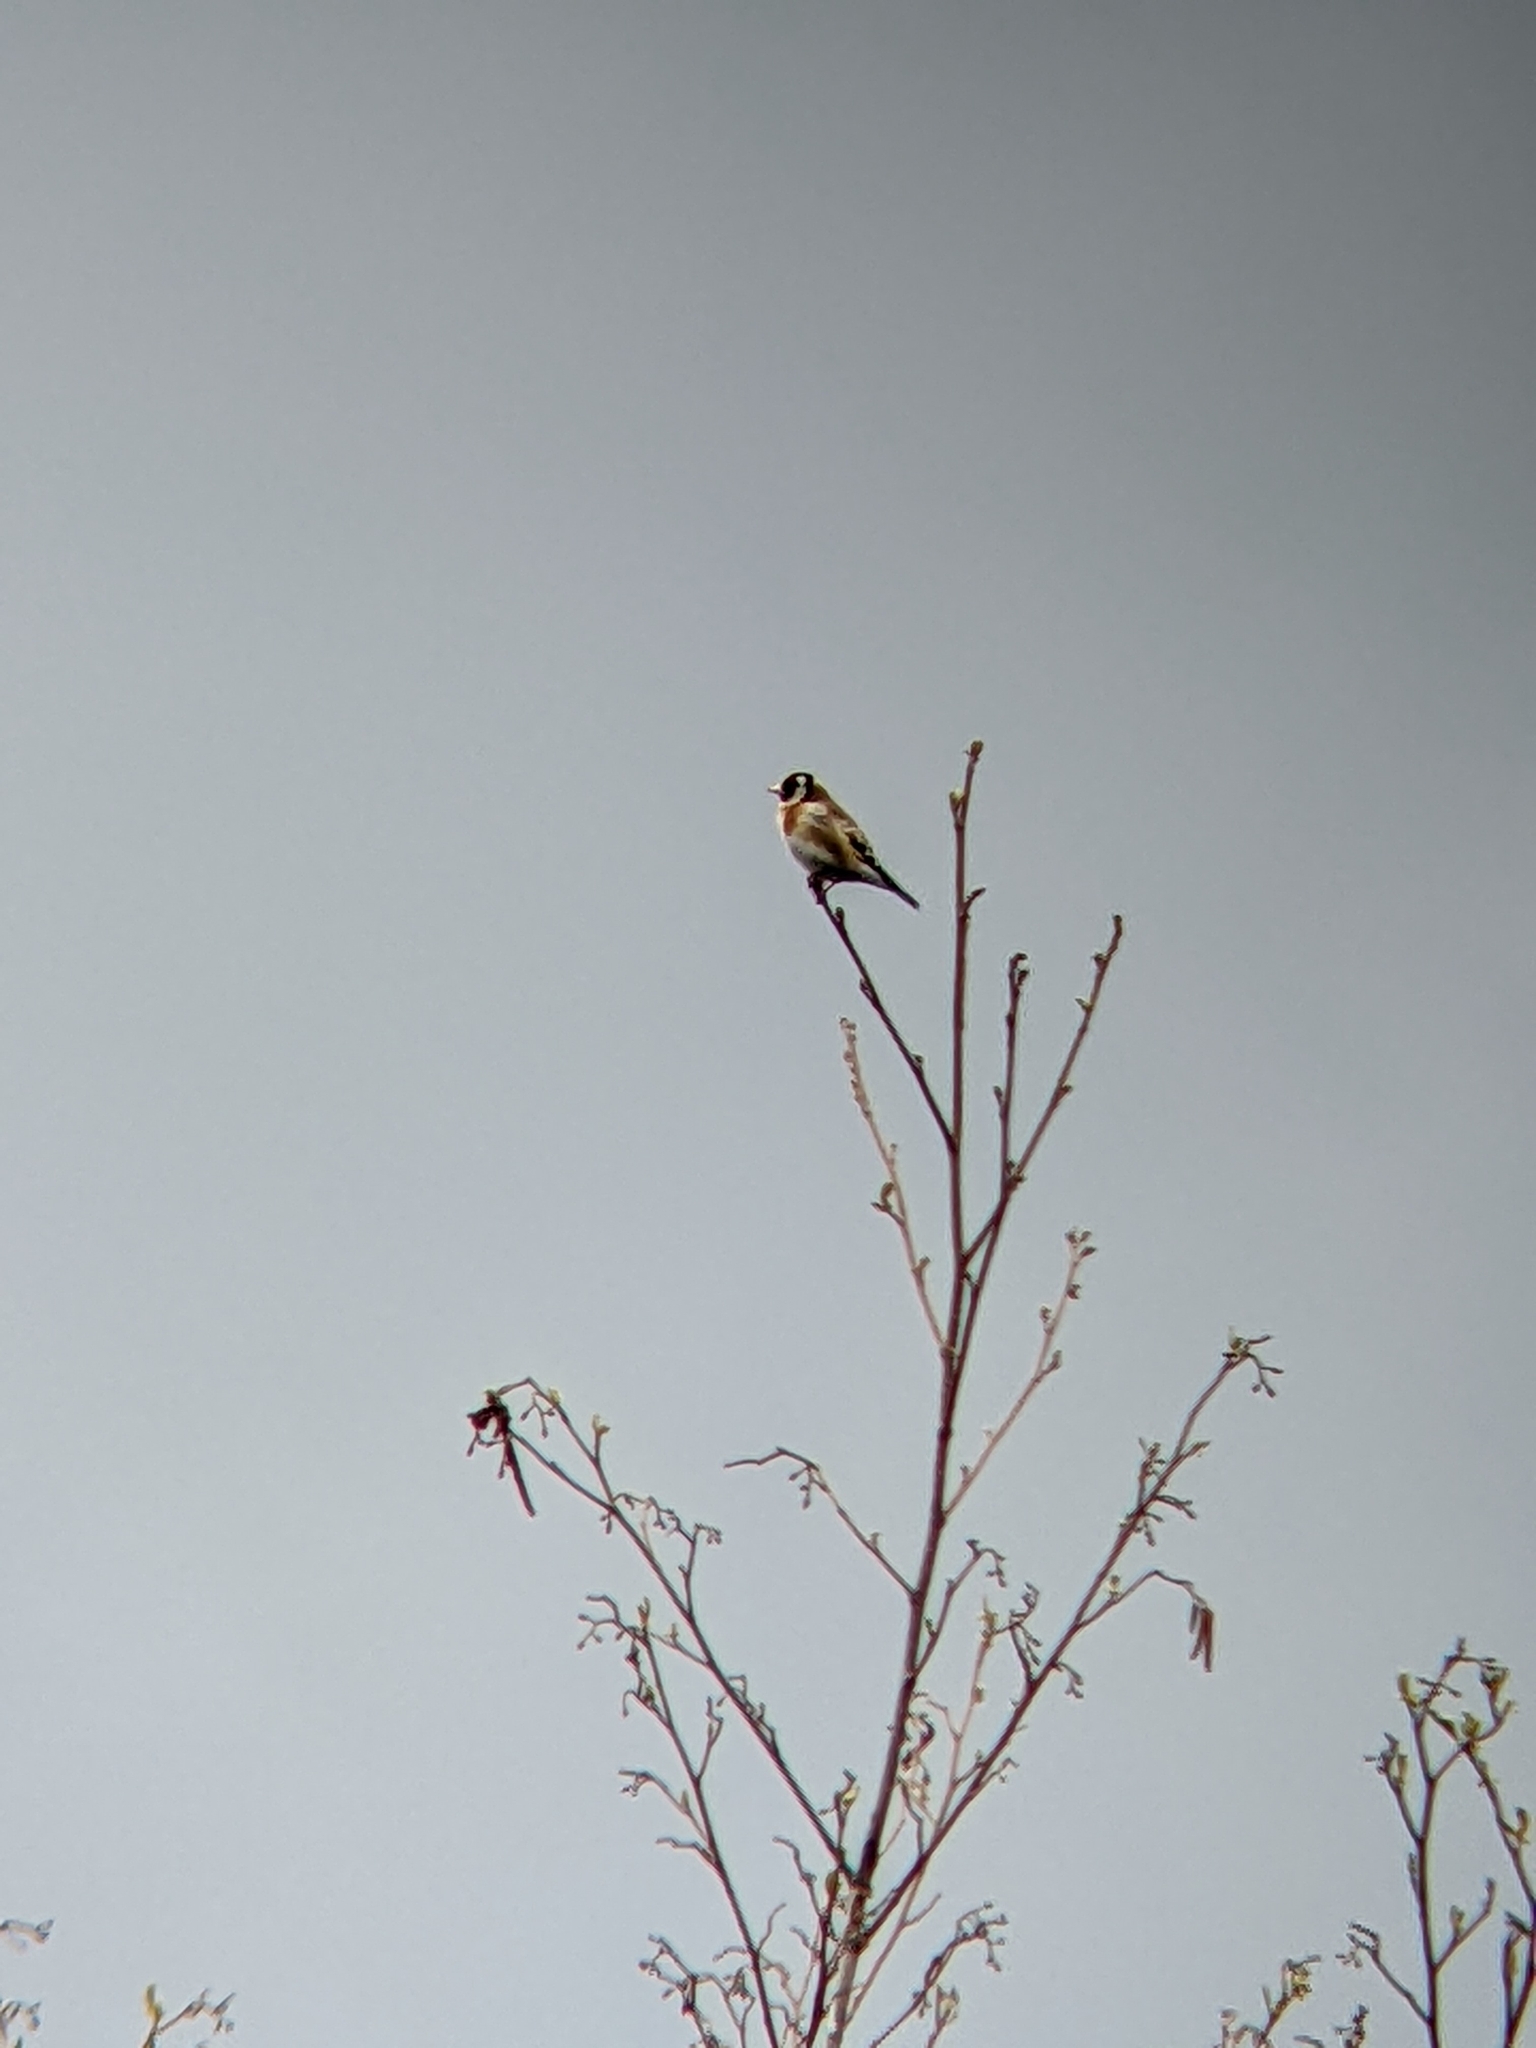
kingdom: Animalia
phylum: Chordata
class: Aves
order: Passeriformes
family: Fringillidae
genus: Carduelis
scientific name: Carduelis carduelis
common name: European goldfinch
